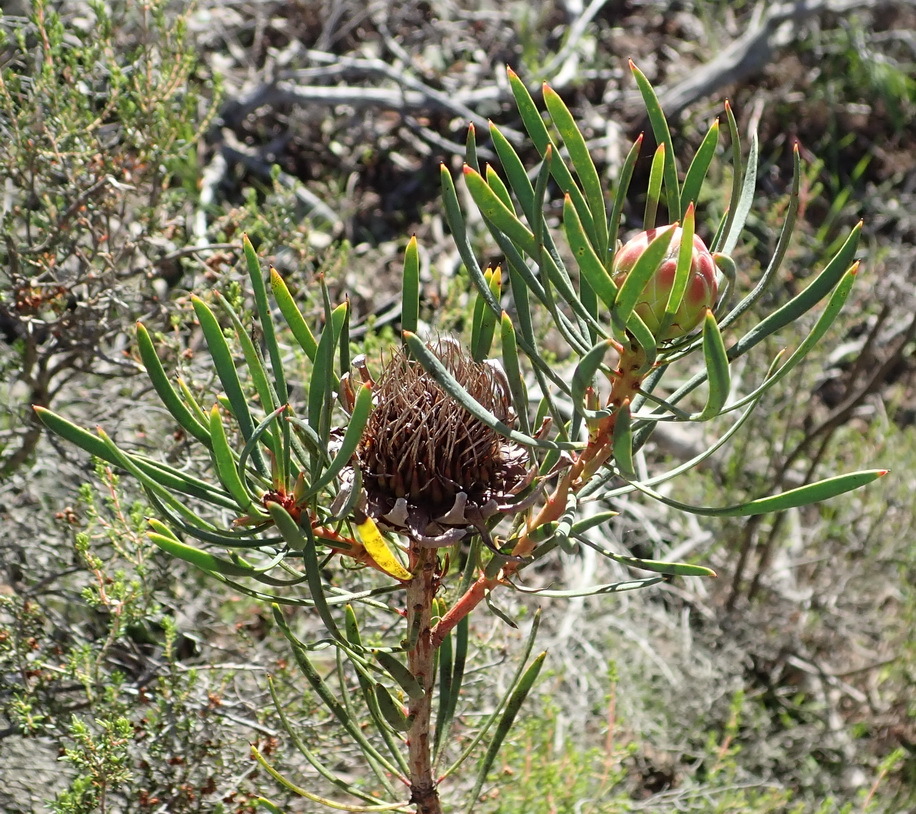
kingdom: Plantae
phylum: Tracheophyta
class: Magnoliopsida
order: Proteales
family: Proteaceae
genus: Protea
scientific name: Protea scolymocephala
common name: Thistle sugarbush
